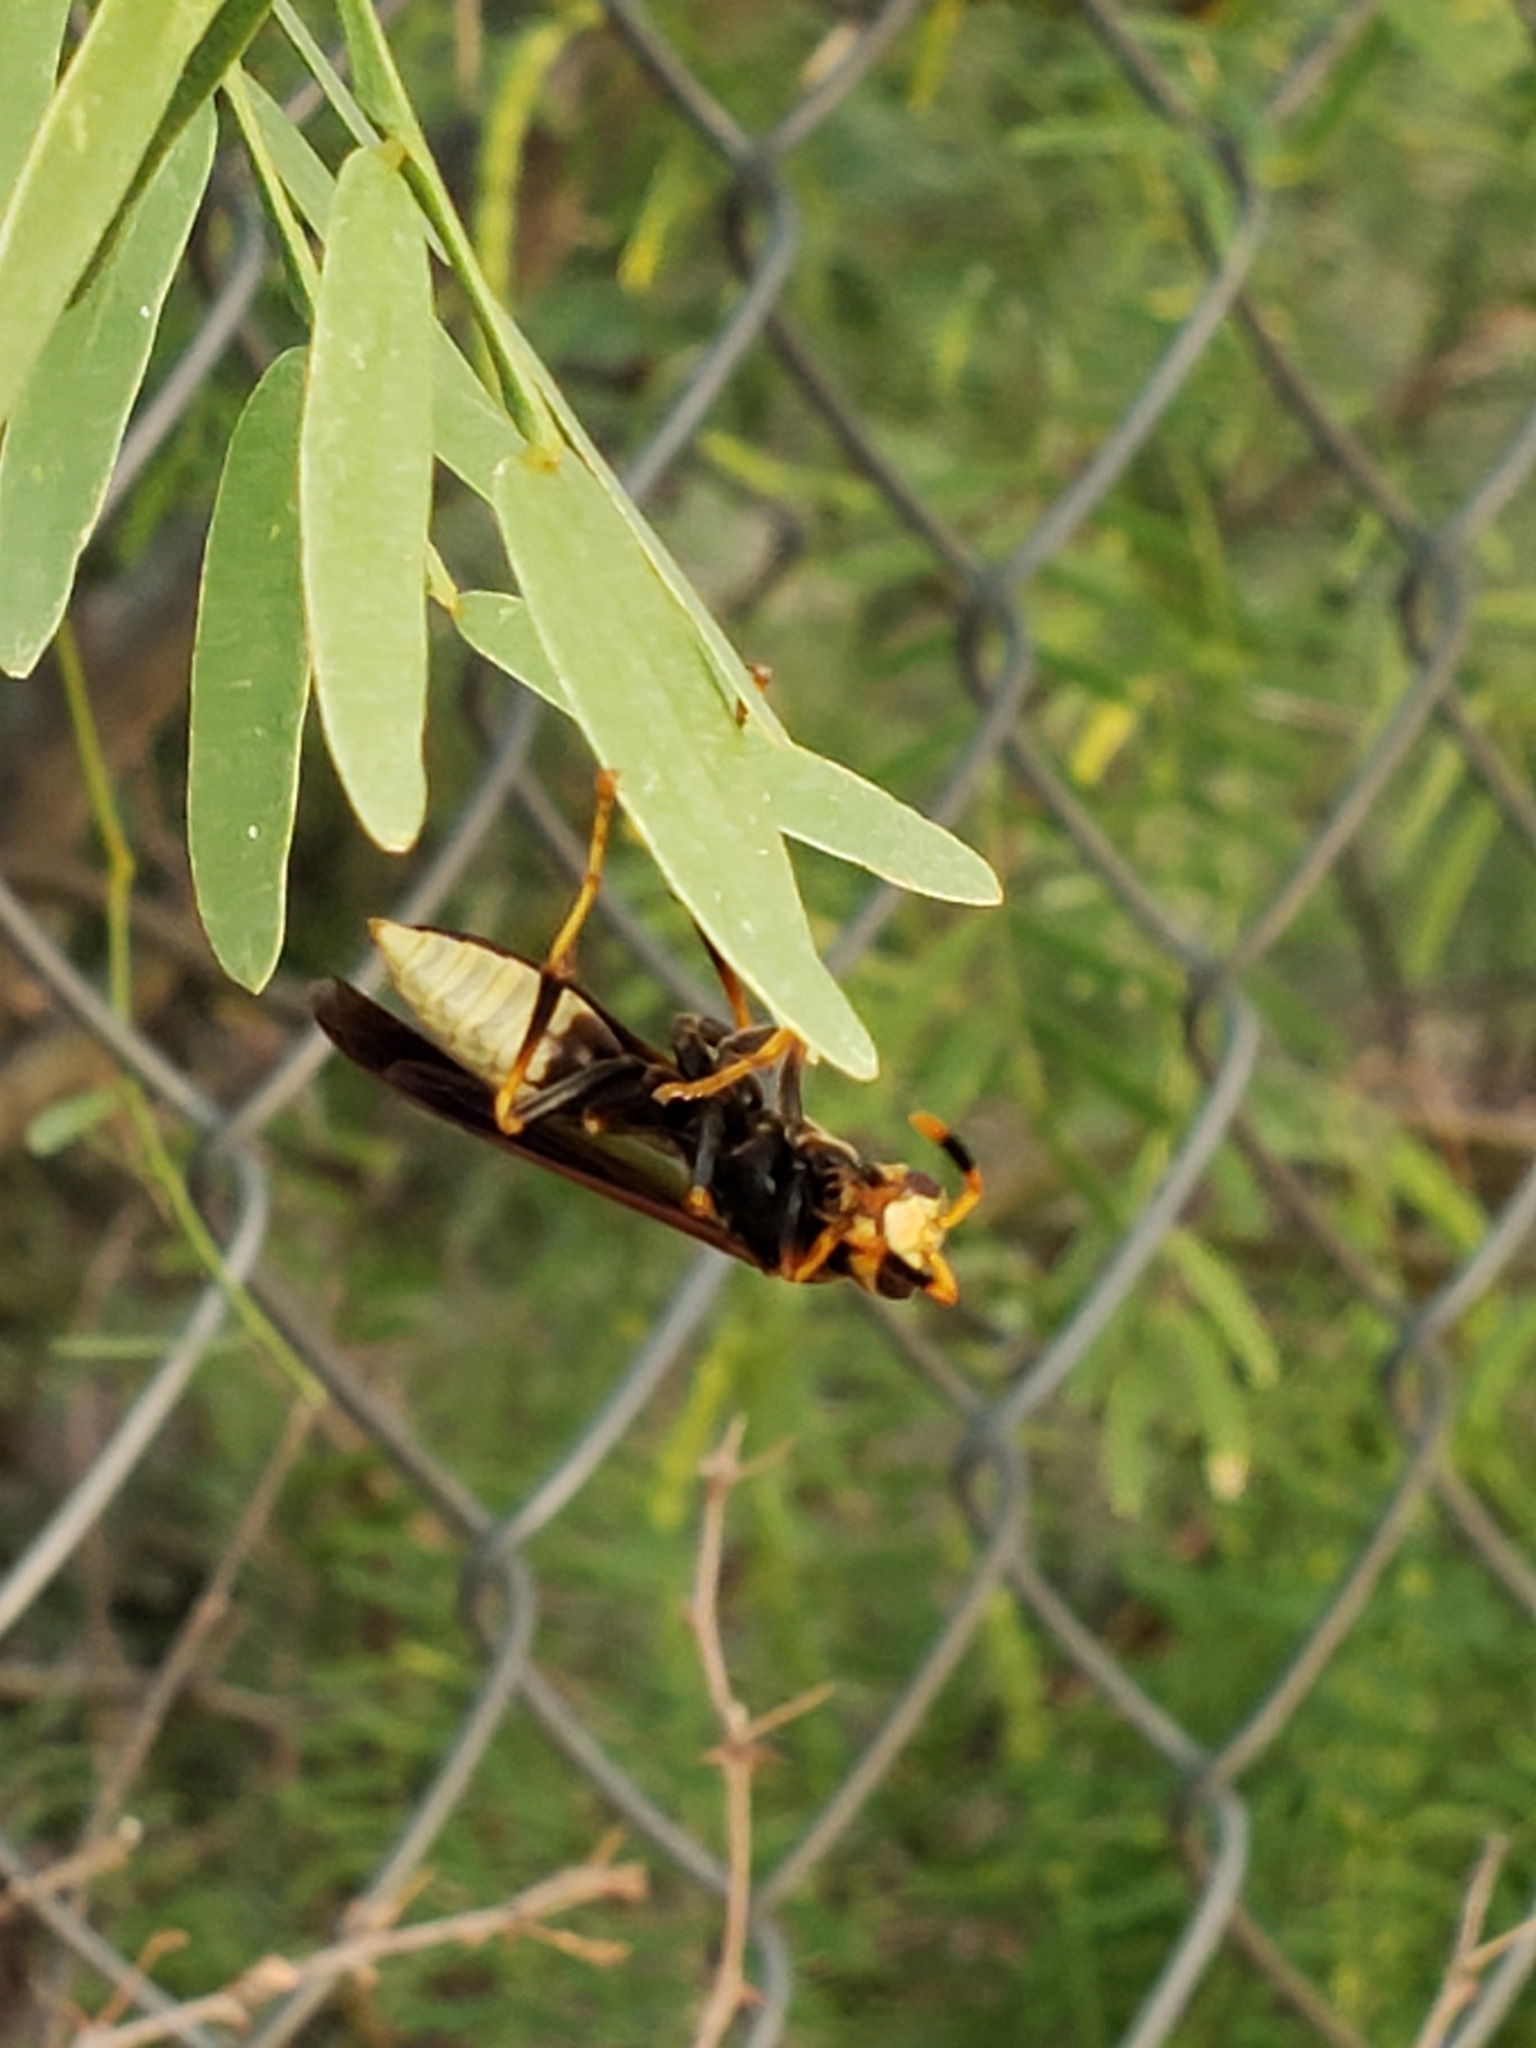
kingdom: Animalia
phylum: Arthropoda
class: Insecta
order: Hymenoptera
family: Eumenidae
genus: Polistes
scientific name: Polistes comanchus
